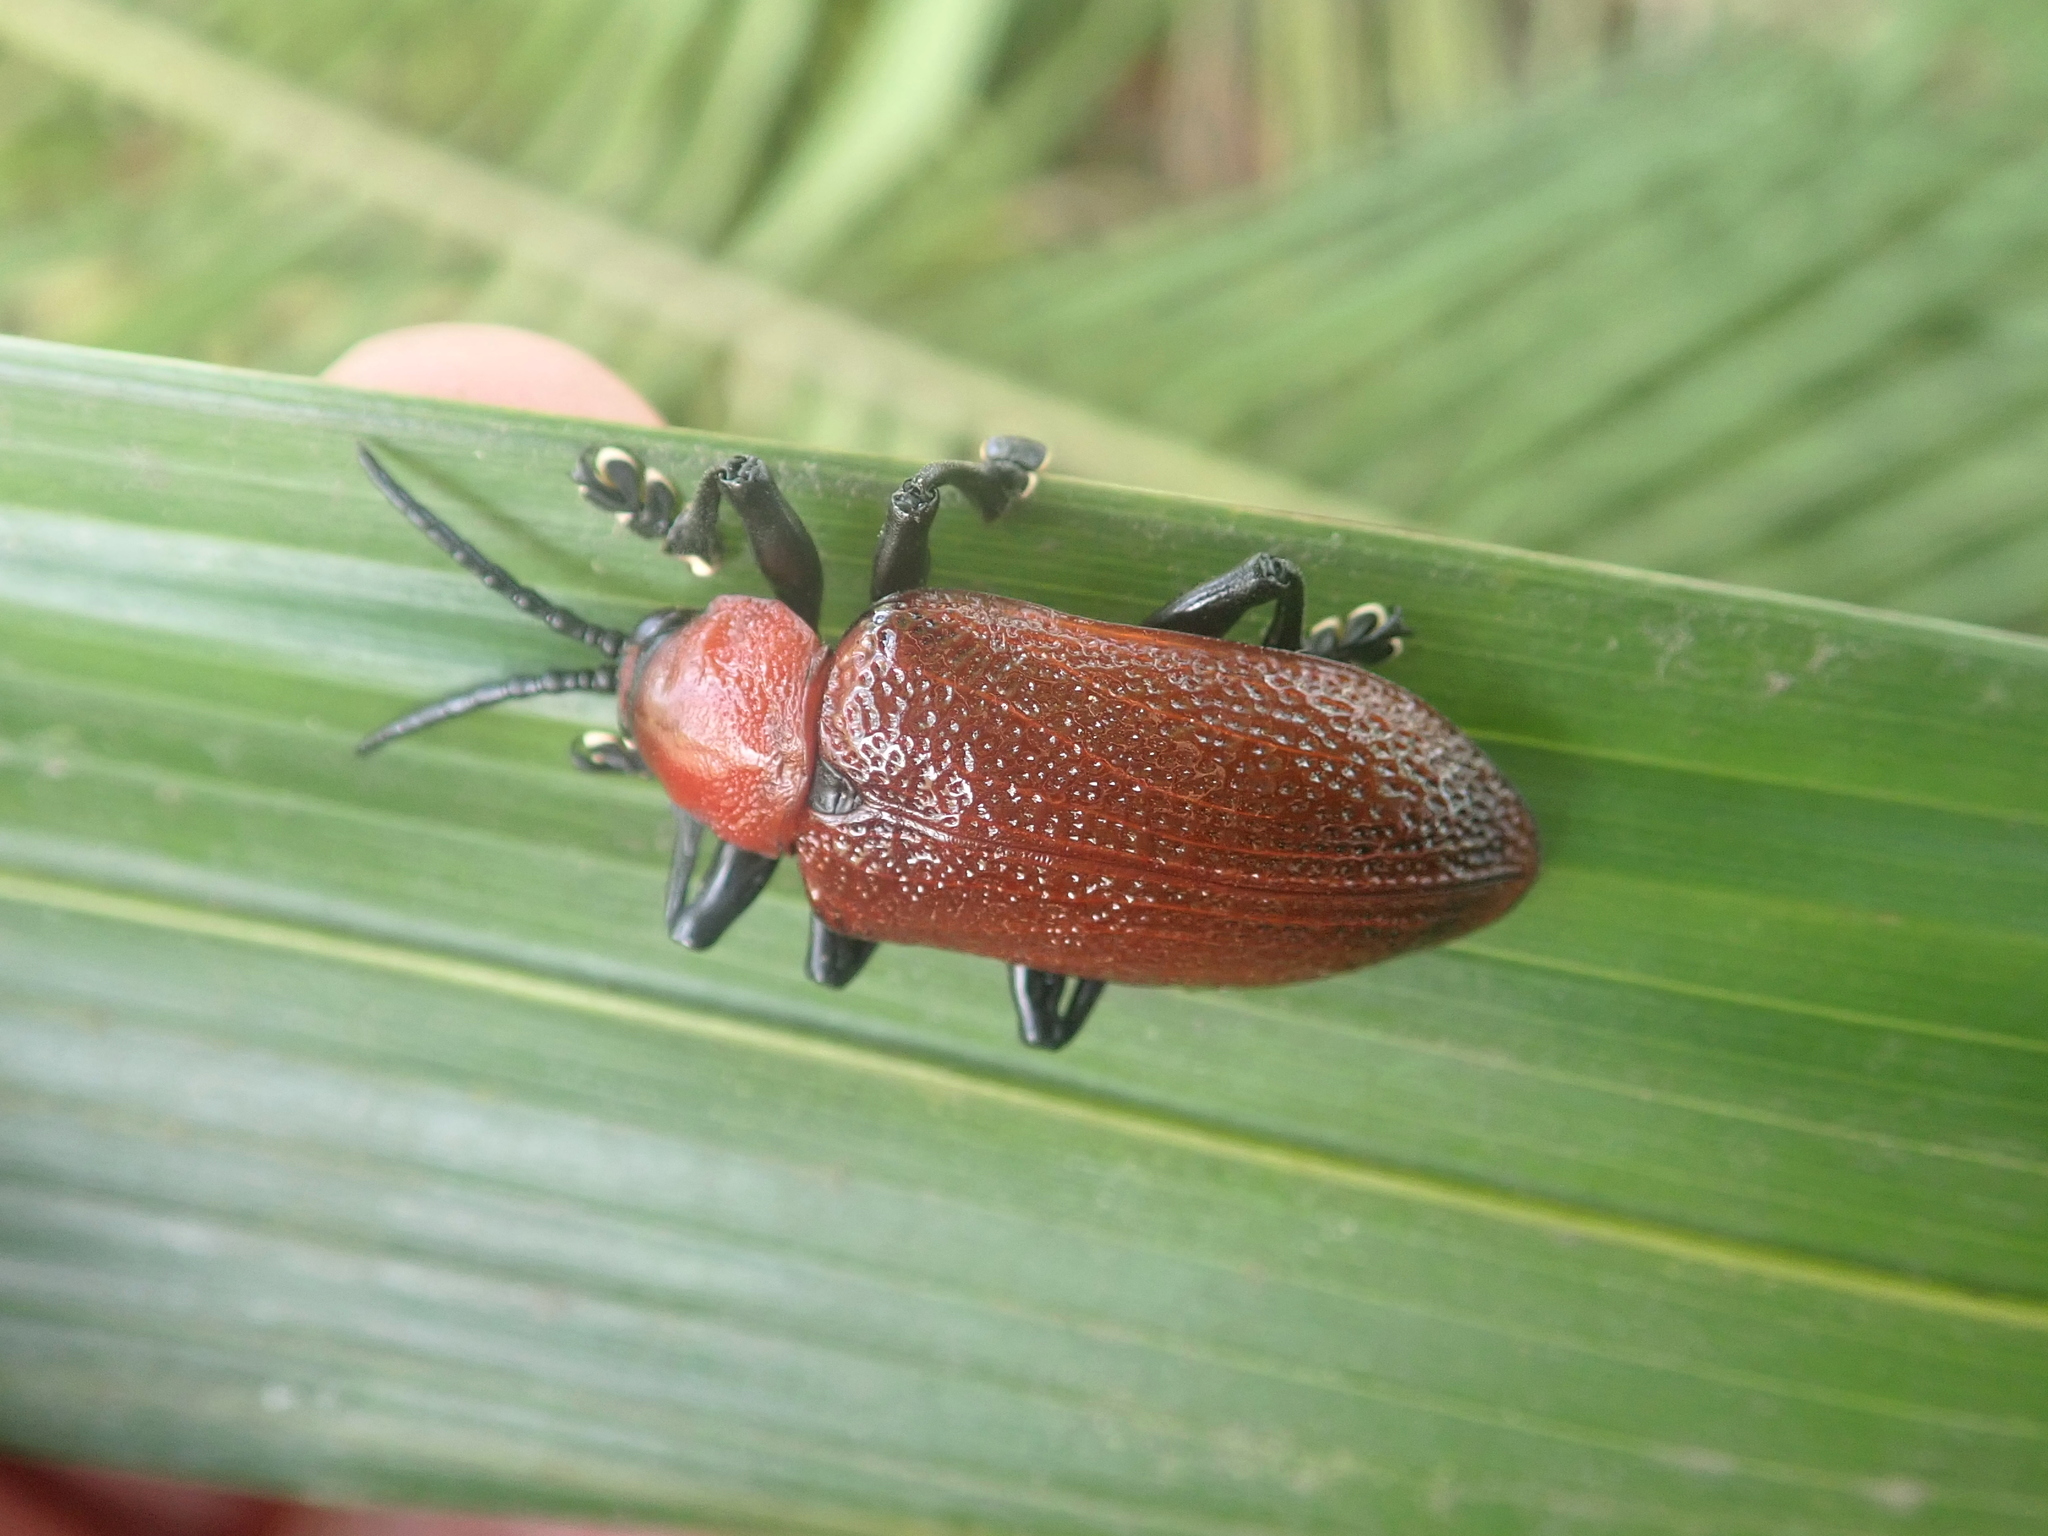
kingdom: Animalia
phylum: Arthropoda
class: Insecta
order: Coleoptera
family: Chrysomelidae
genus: Coraliomela
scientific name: Coraliomela brunnea
